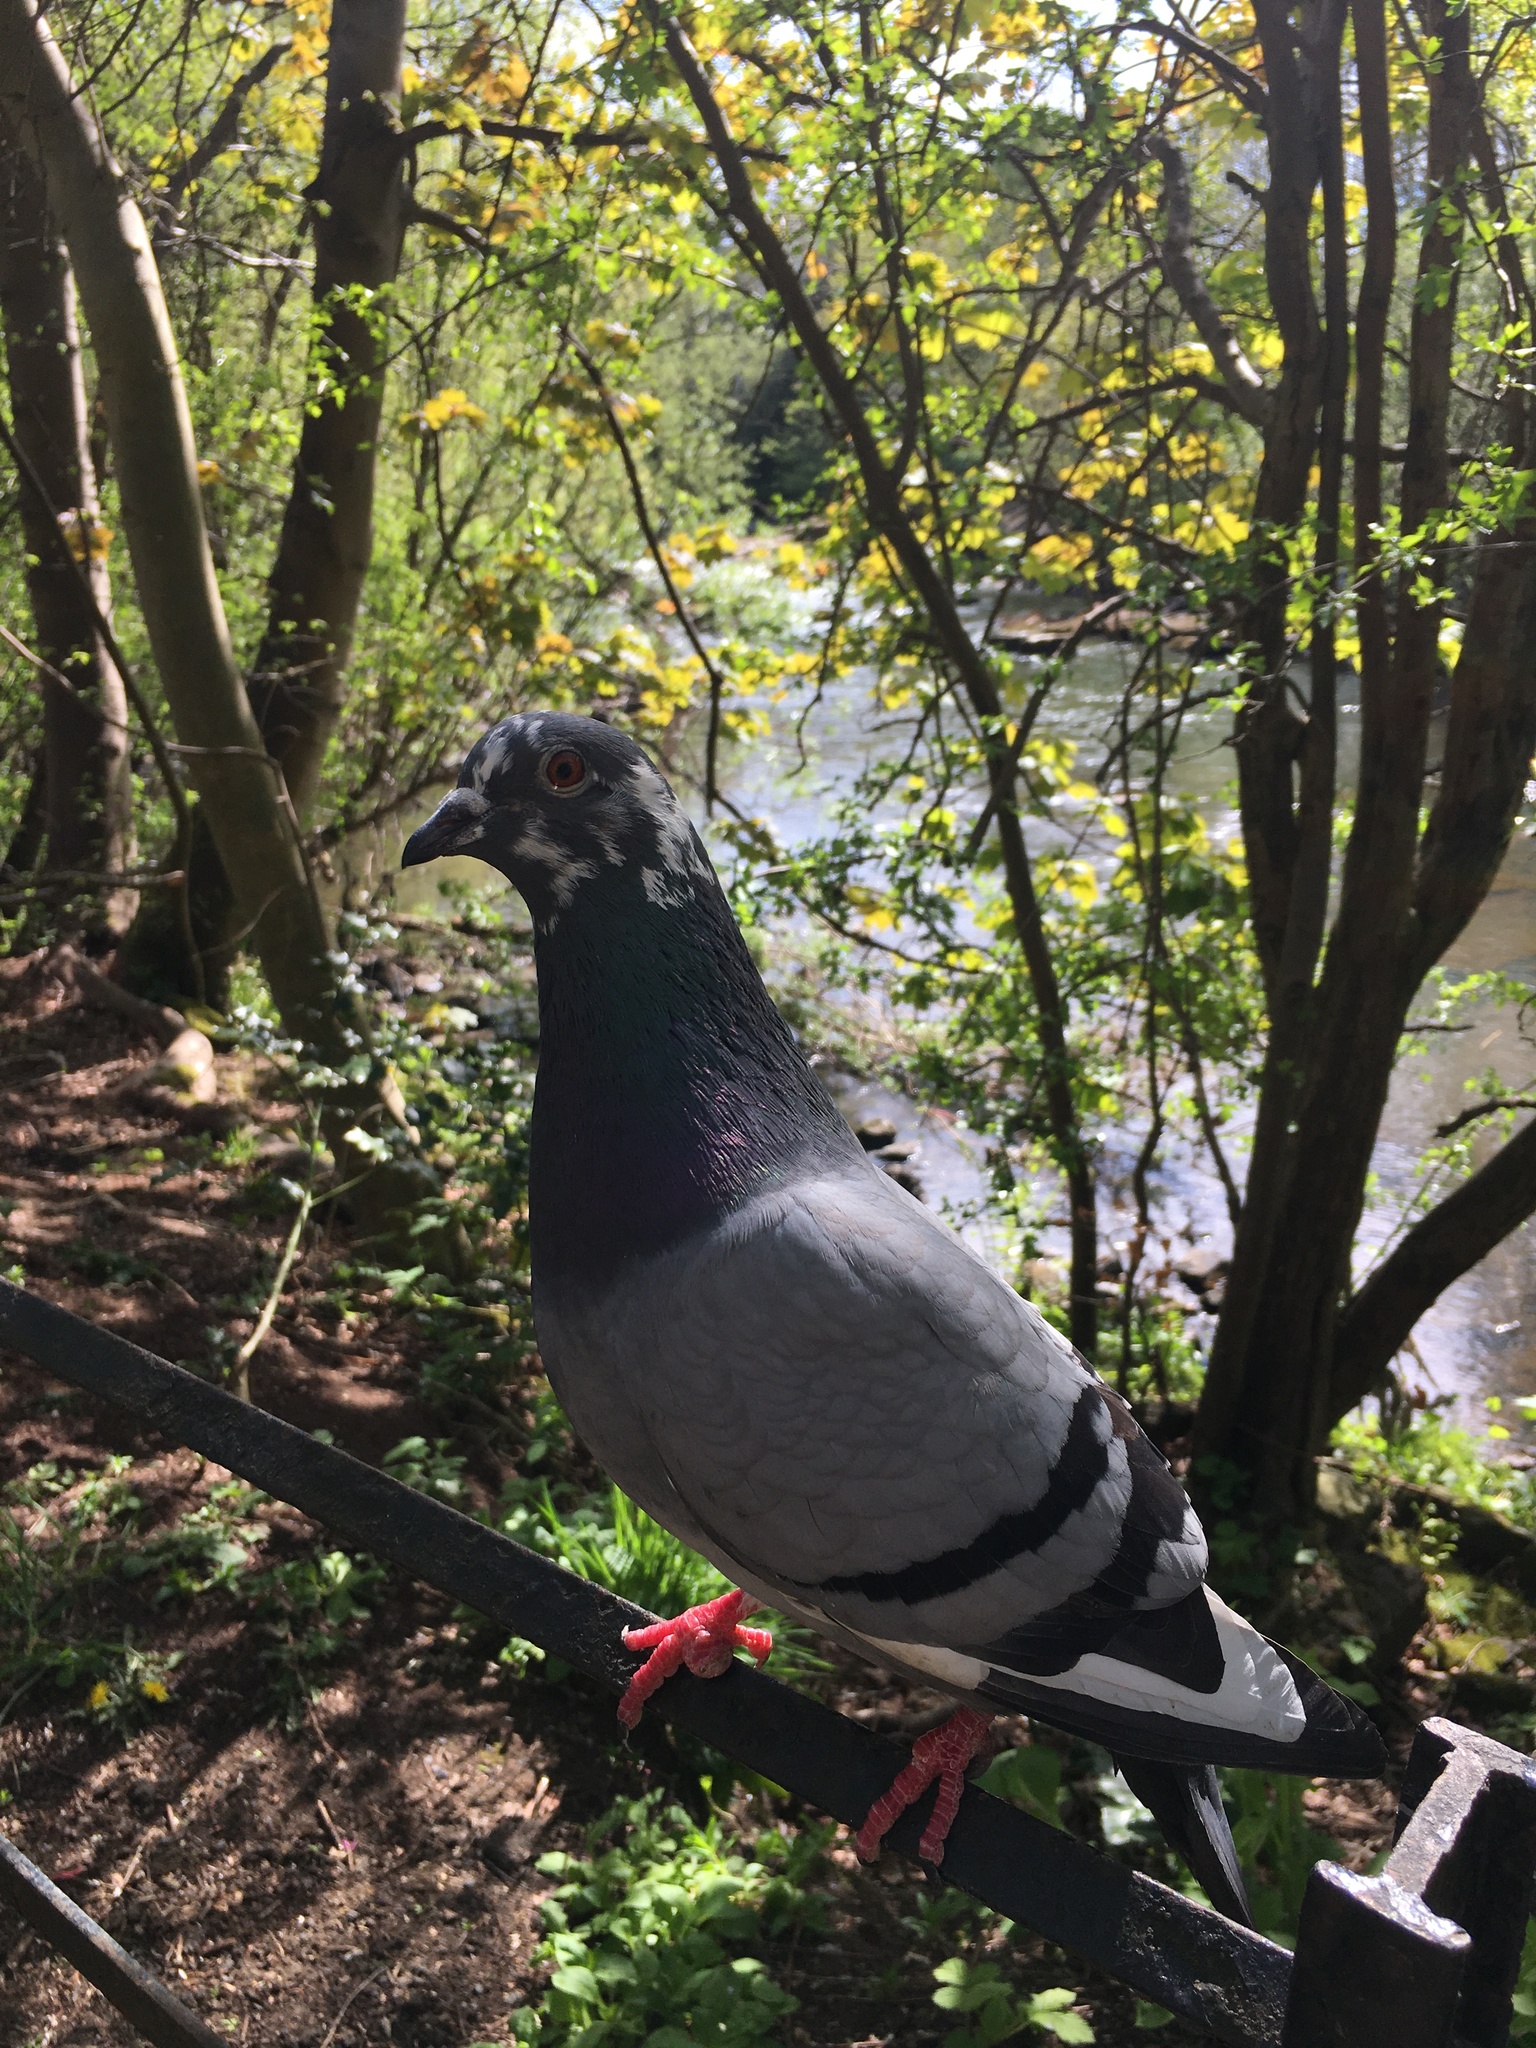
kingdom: Animalia
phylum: Chordata
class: Aves
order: Columbiformes
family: Columbidae
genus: Columba
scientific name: Columba livia
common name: Rock pigeon
